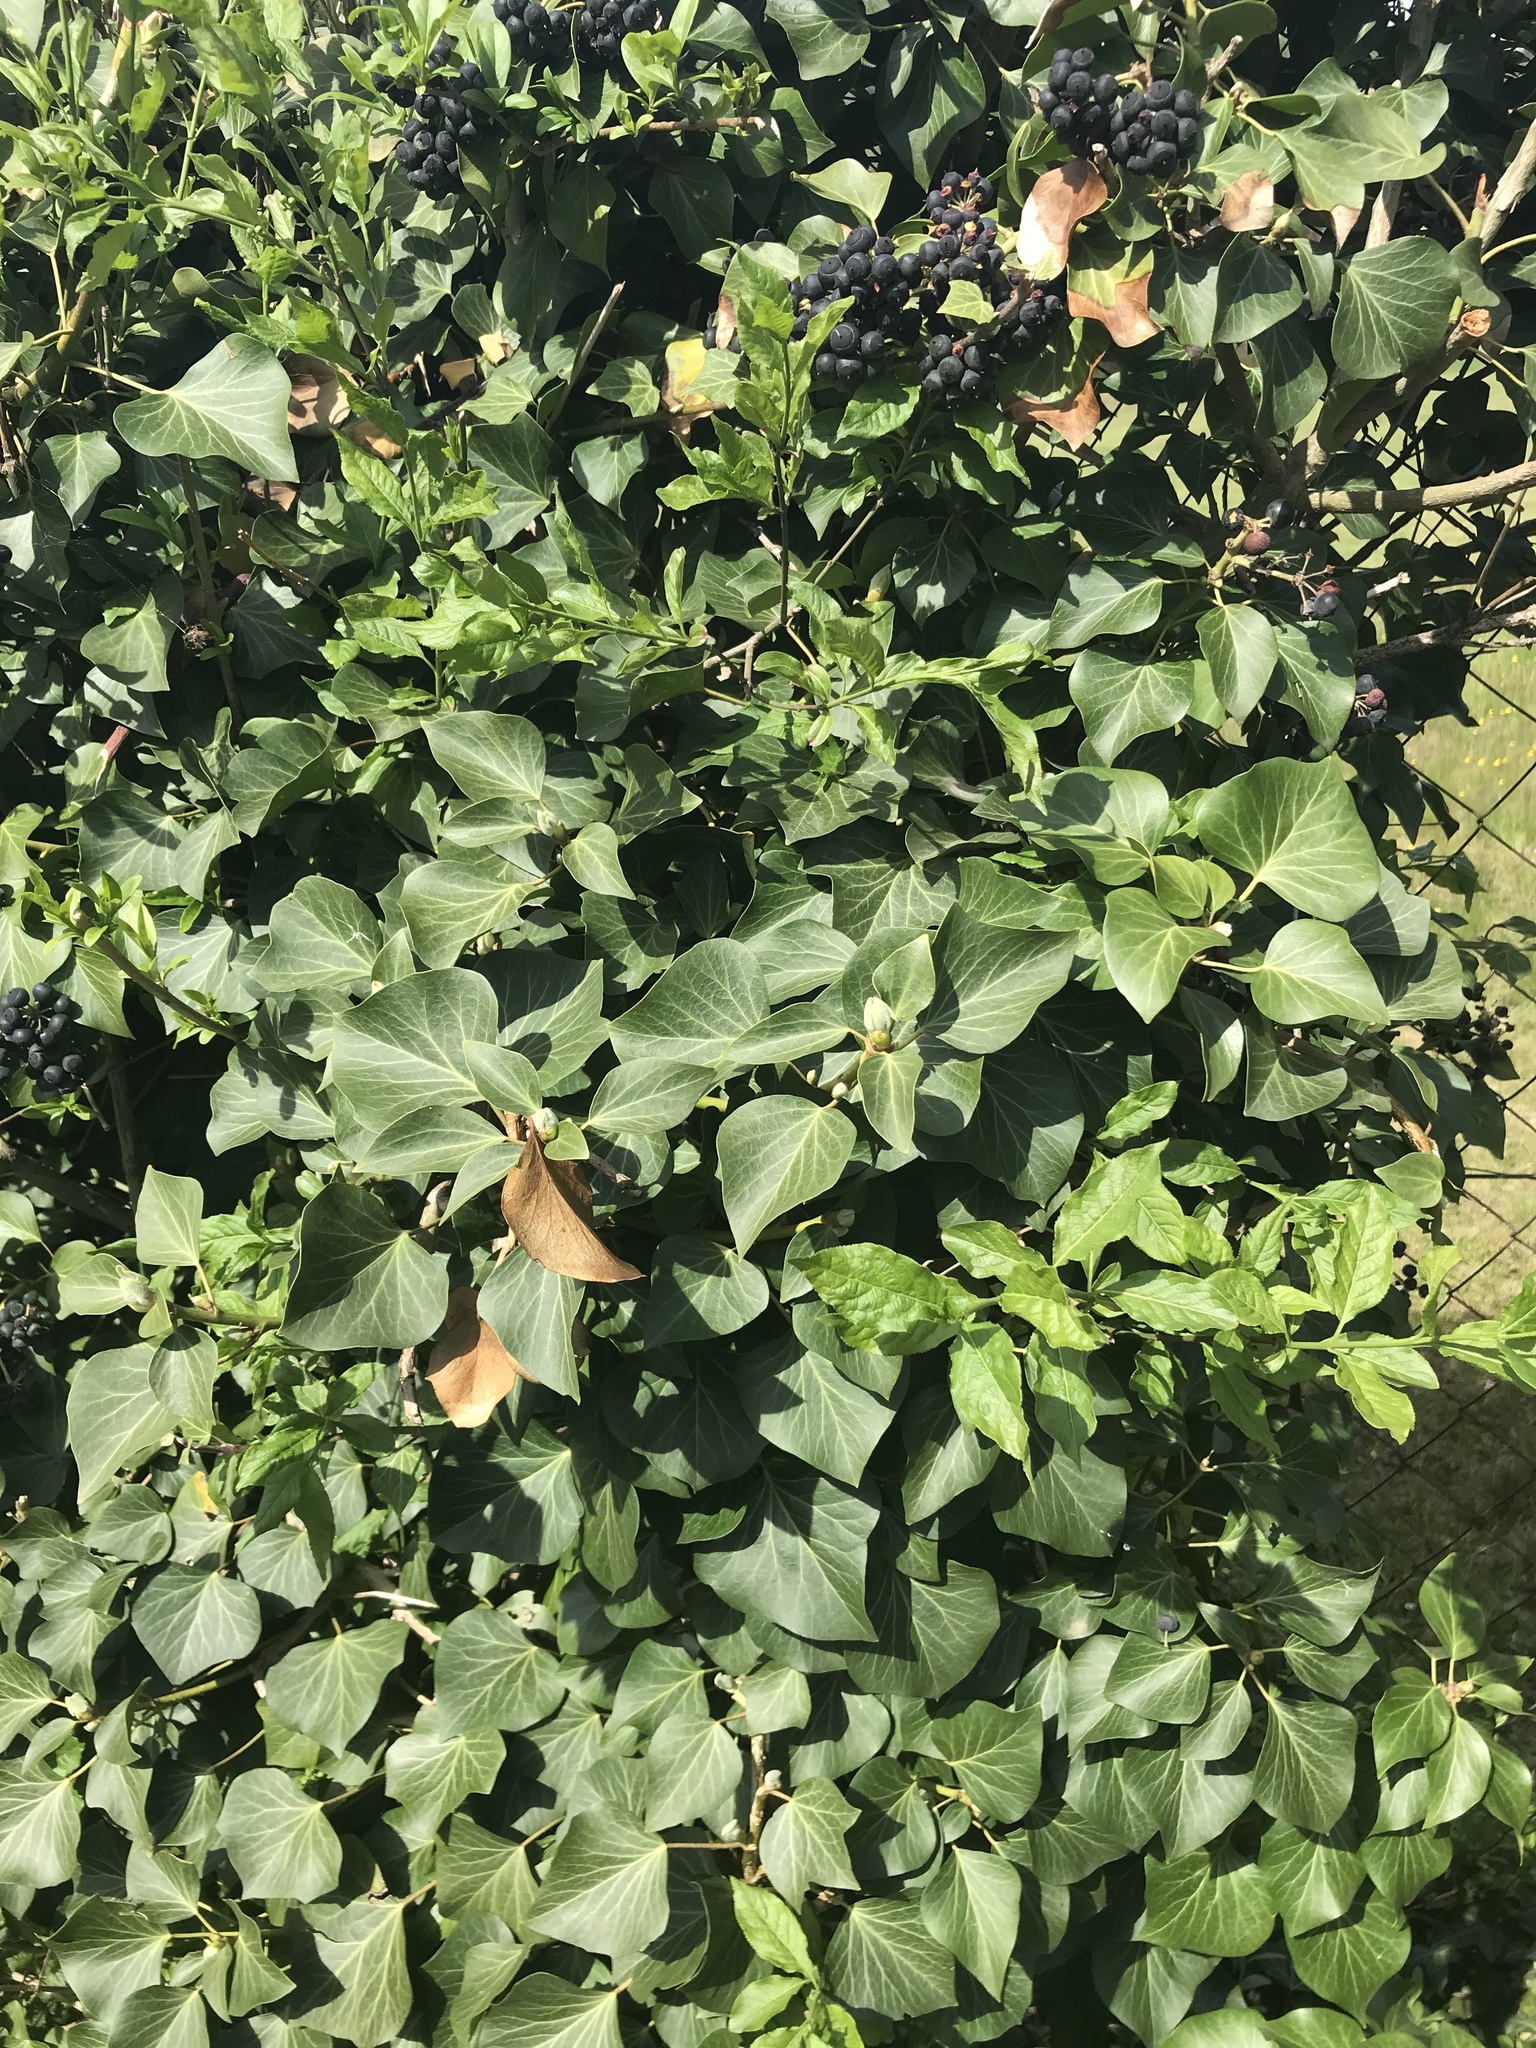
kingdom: Plantae
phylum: Tracheophyta
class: Magnoliopsida
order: Apiales
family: Araliaceae
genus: Hedera
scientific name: Hedera helix
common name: Ivy
